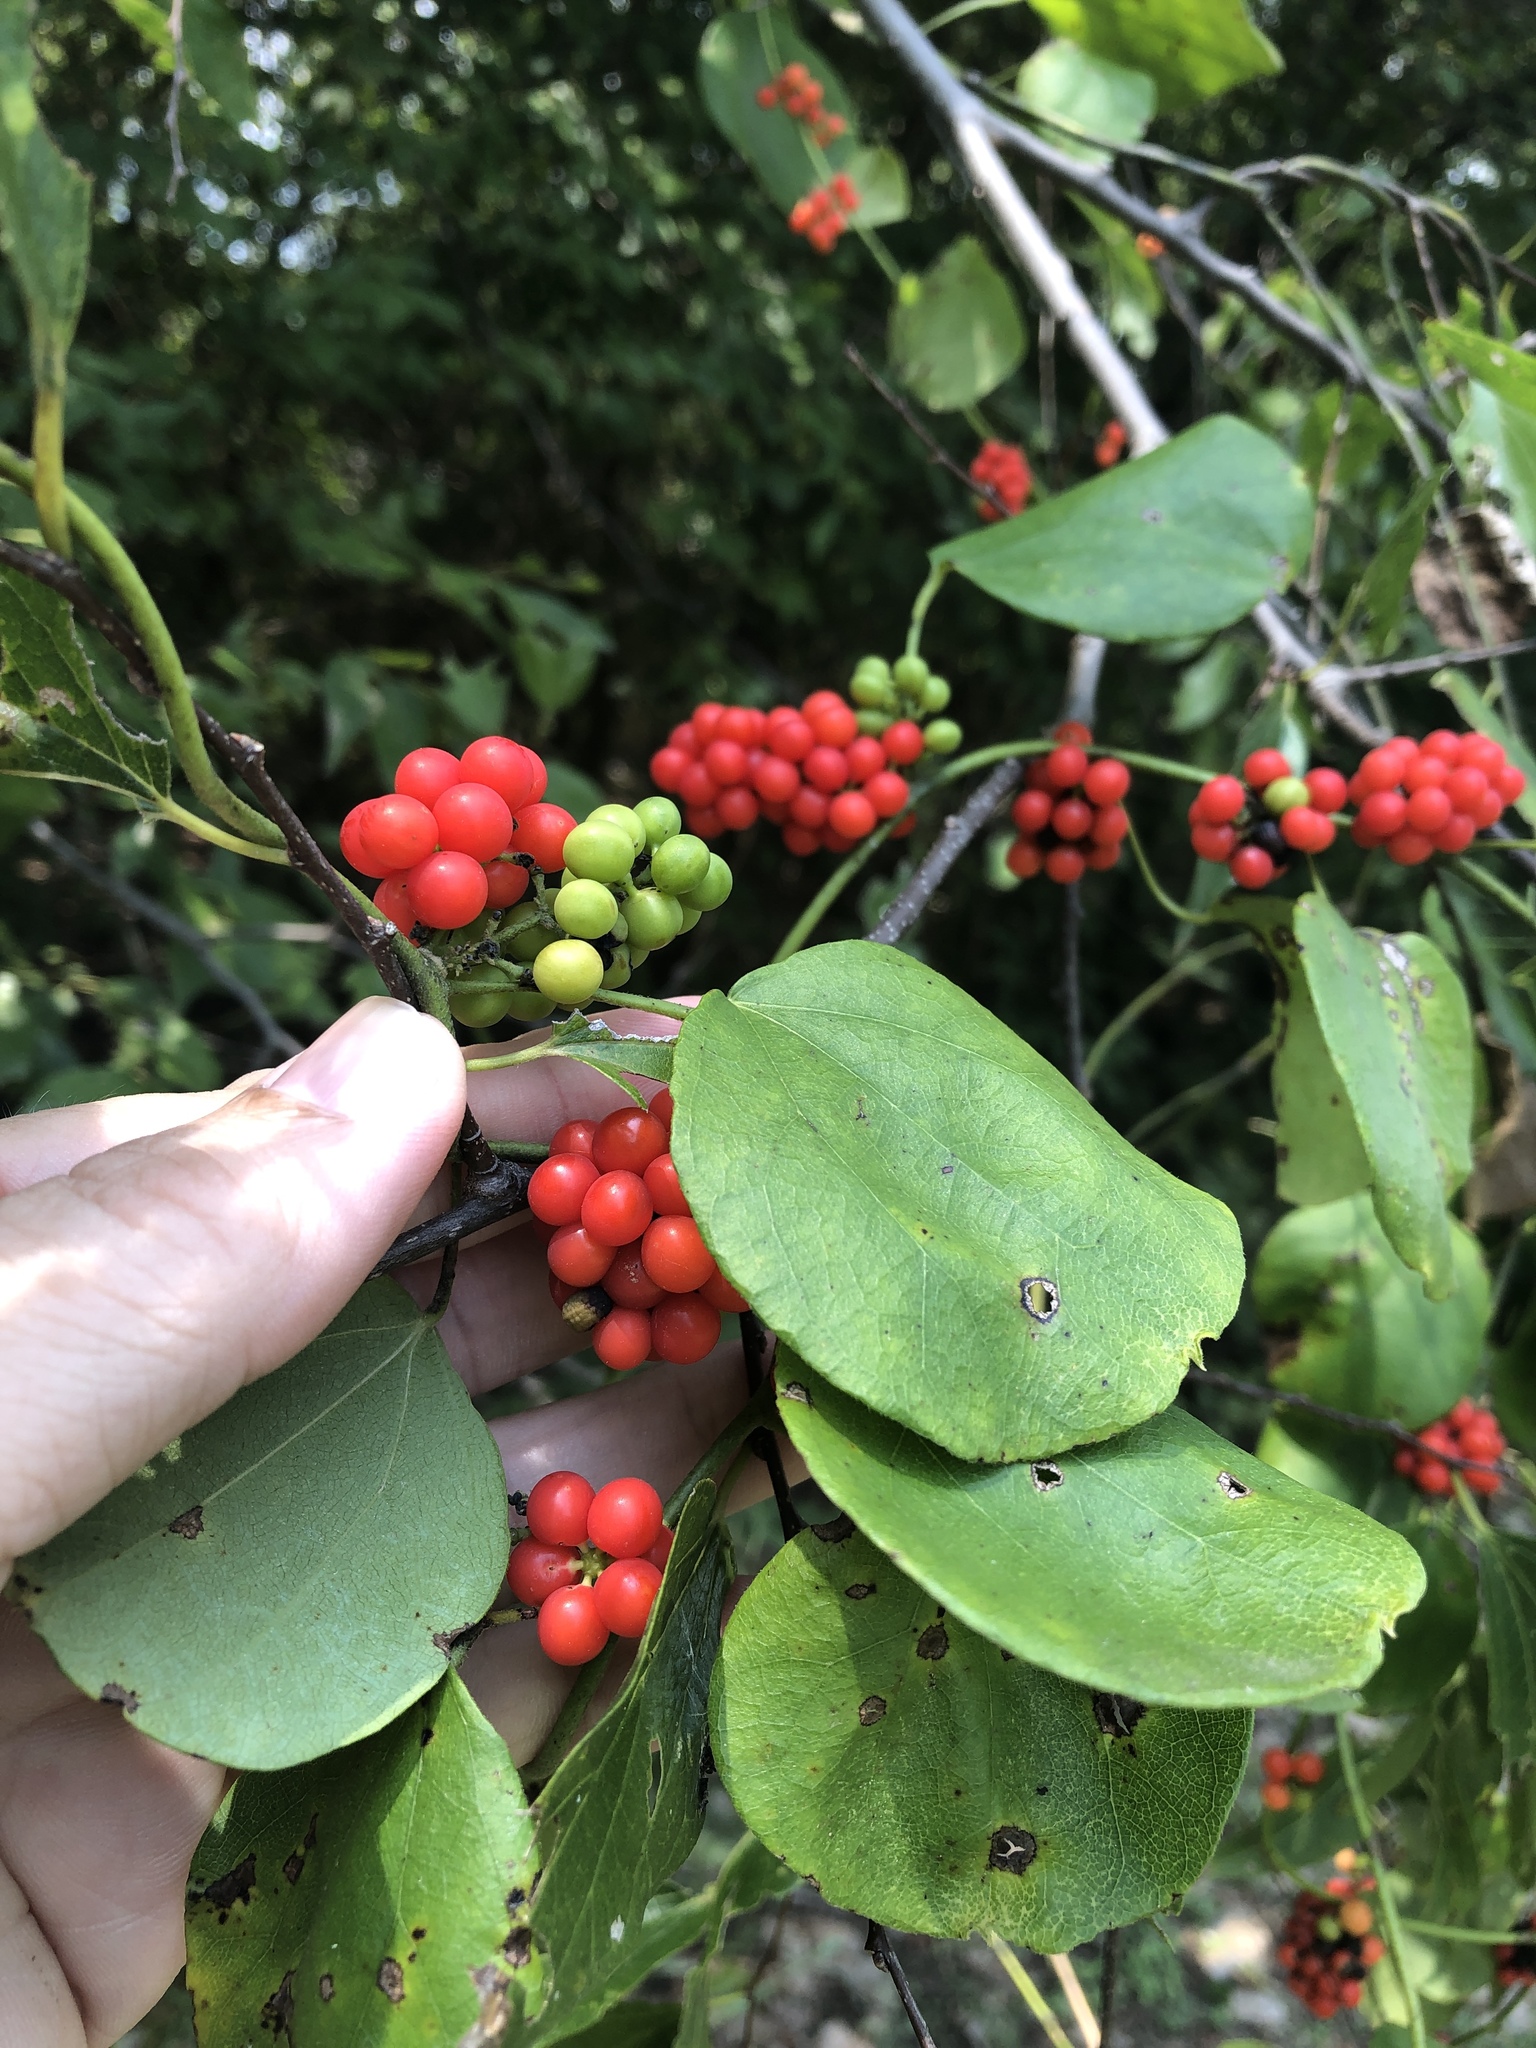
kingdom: Plantae
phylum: Tracheophyta
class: Magnoliopsida
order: Ranunculales
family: Menispermaceae
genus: Cocculus
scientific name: Cocculus carolinus
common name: Carolina moonseed
